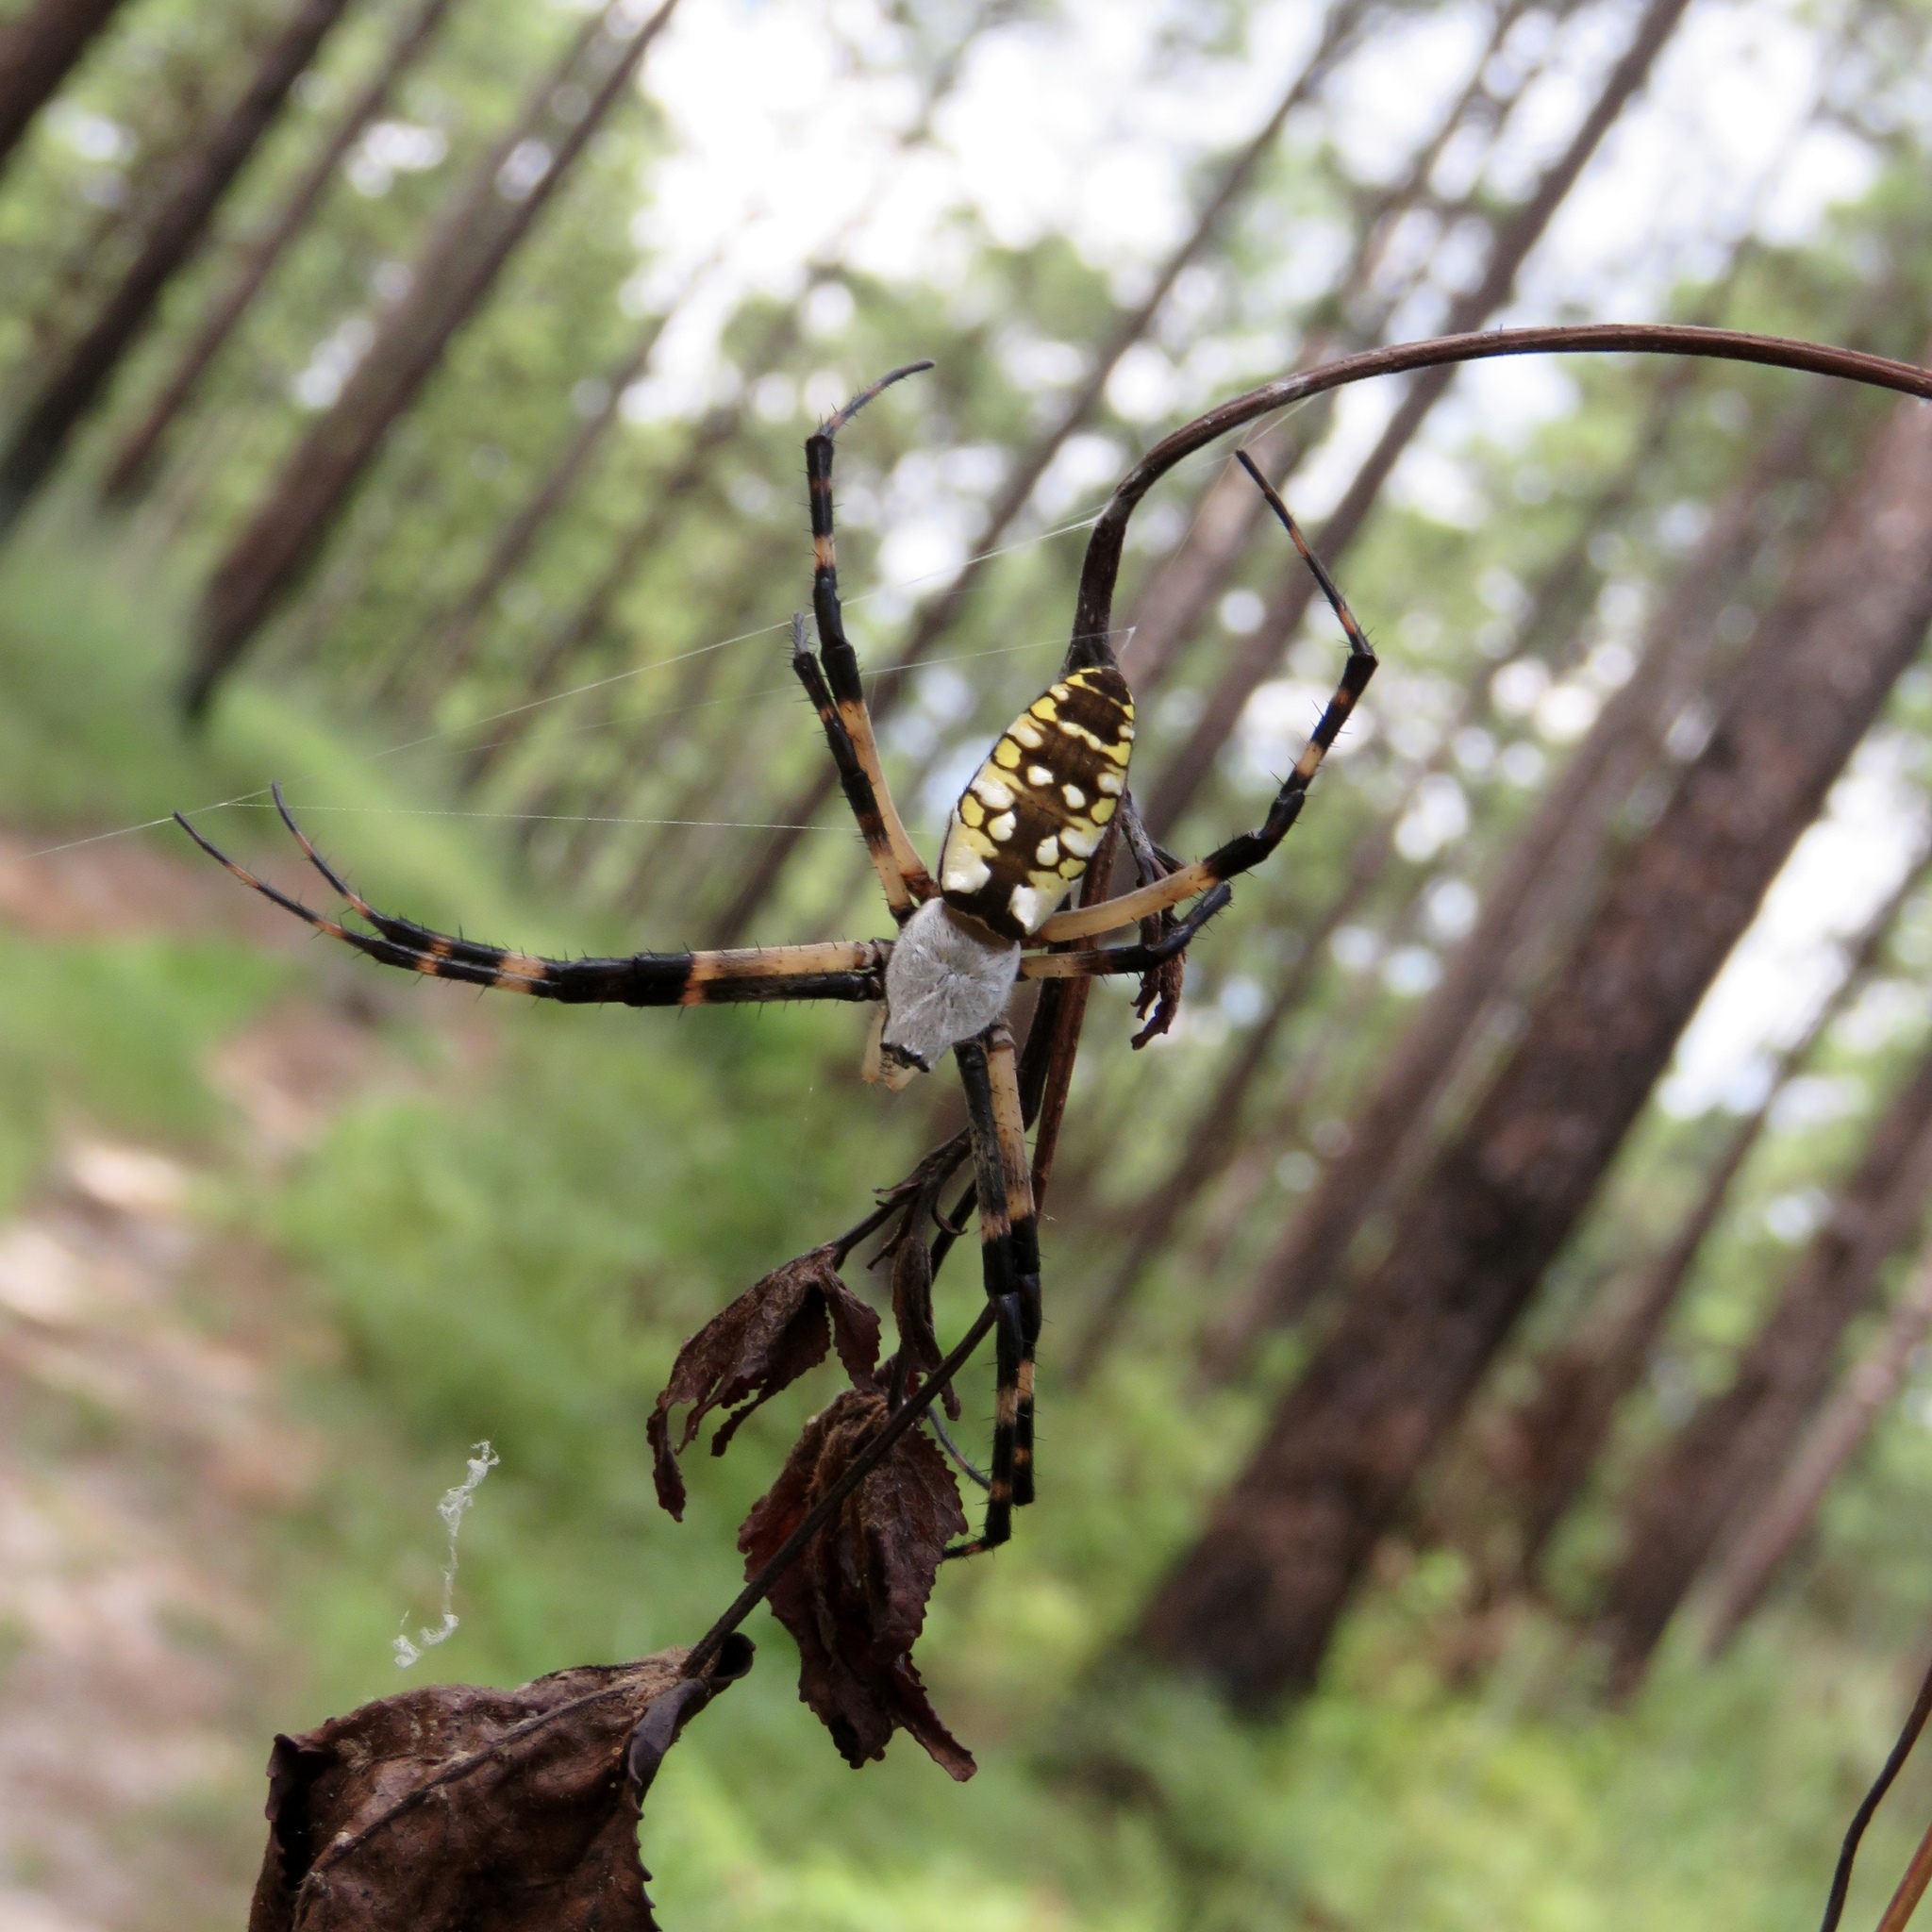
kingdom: Animalia
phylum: Arthropoda
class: Arachnida
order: Araneae
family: Araneidae
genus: Argiope
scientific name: Argiope aurantia
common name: Orb weavers
